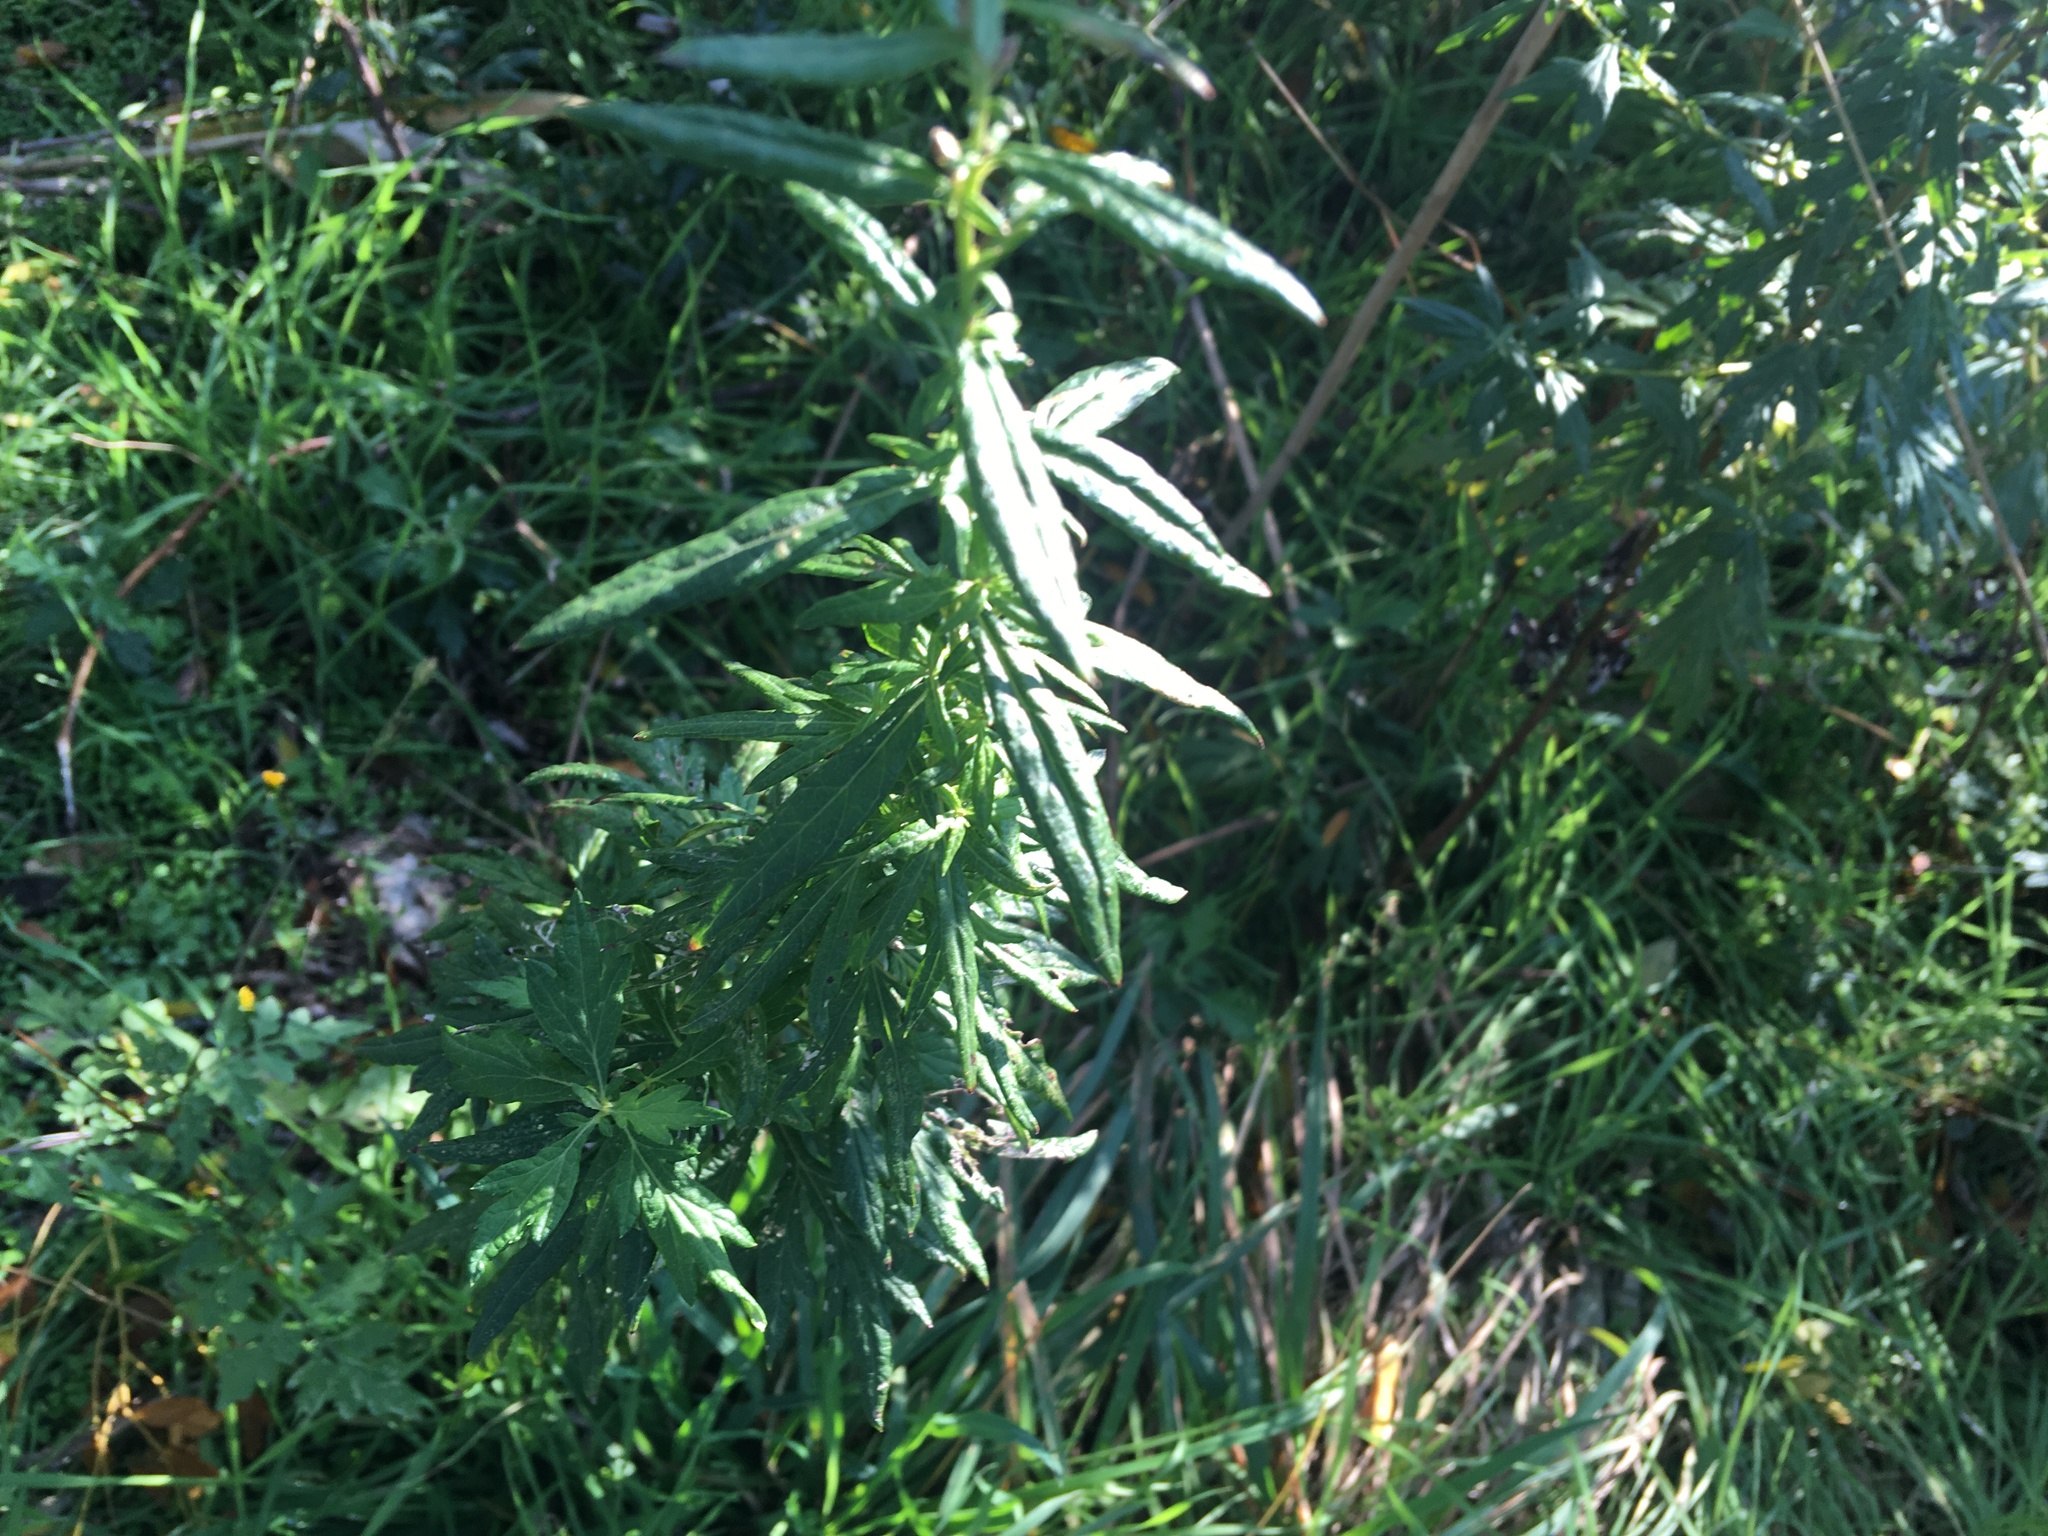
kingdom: Plantae
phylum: Tracheophyta
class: Magnoliopsida
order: Asterales
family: Asteraceae
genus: Artemisia
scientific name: Artemisia vulgaris
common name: Mugwort
